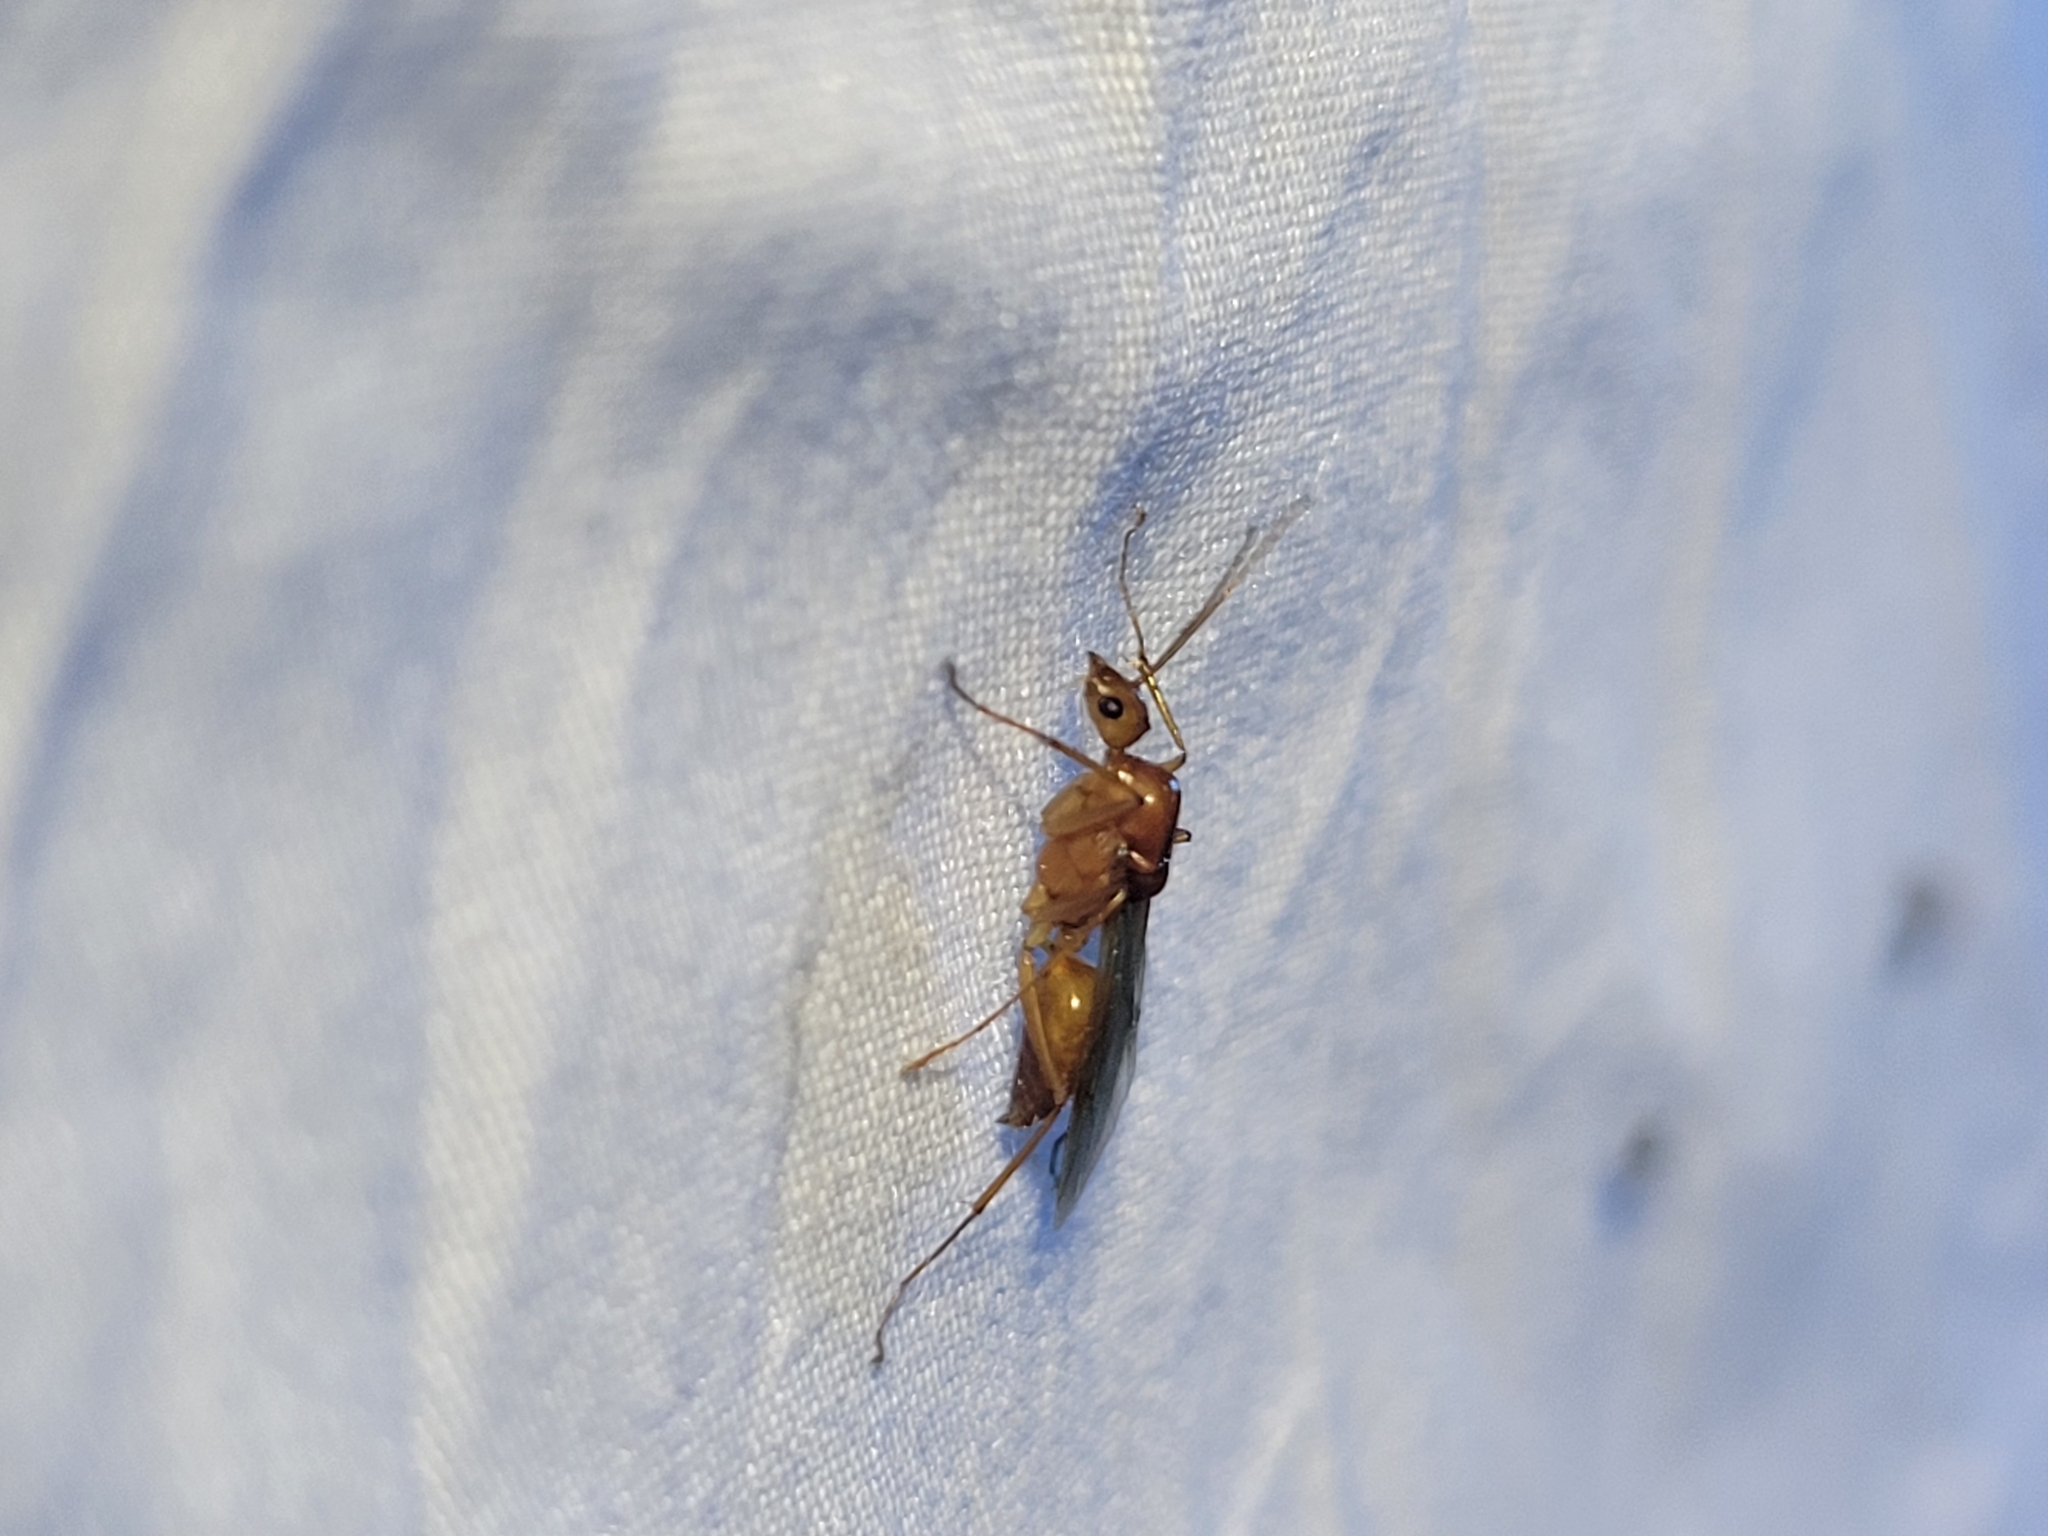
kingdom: Animalia
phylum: Arthropoda
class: Insecta
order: Hymenoptera
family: Formicidae
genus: Camponotus
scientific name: Camponotus castaneus
